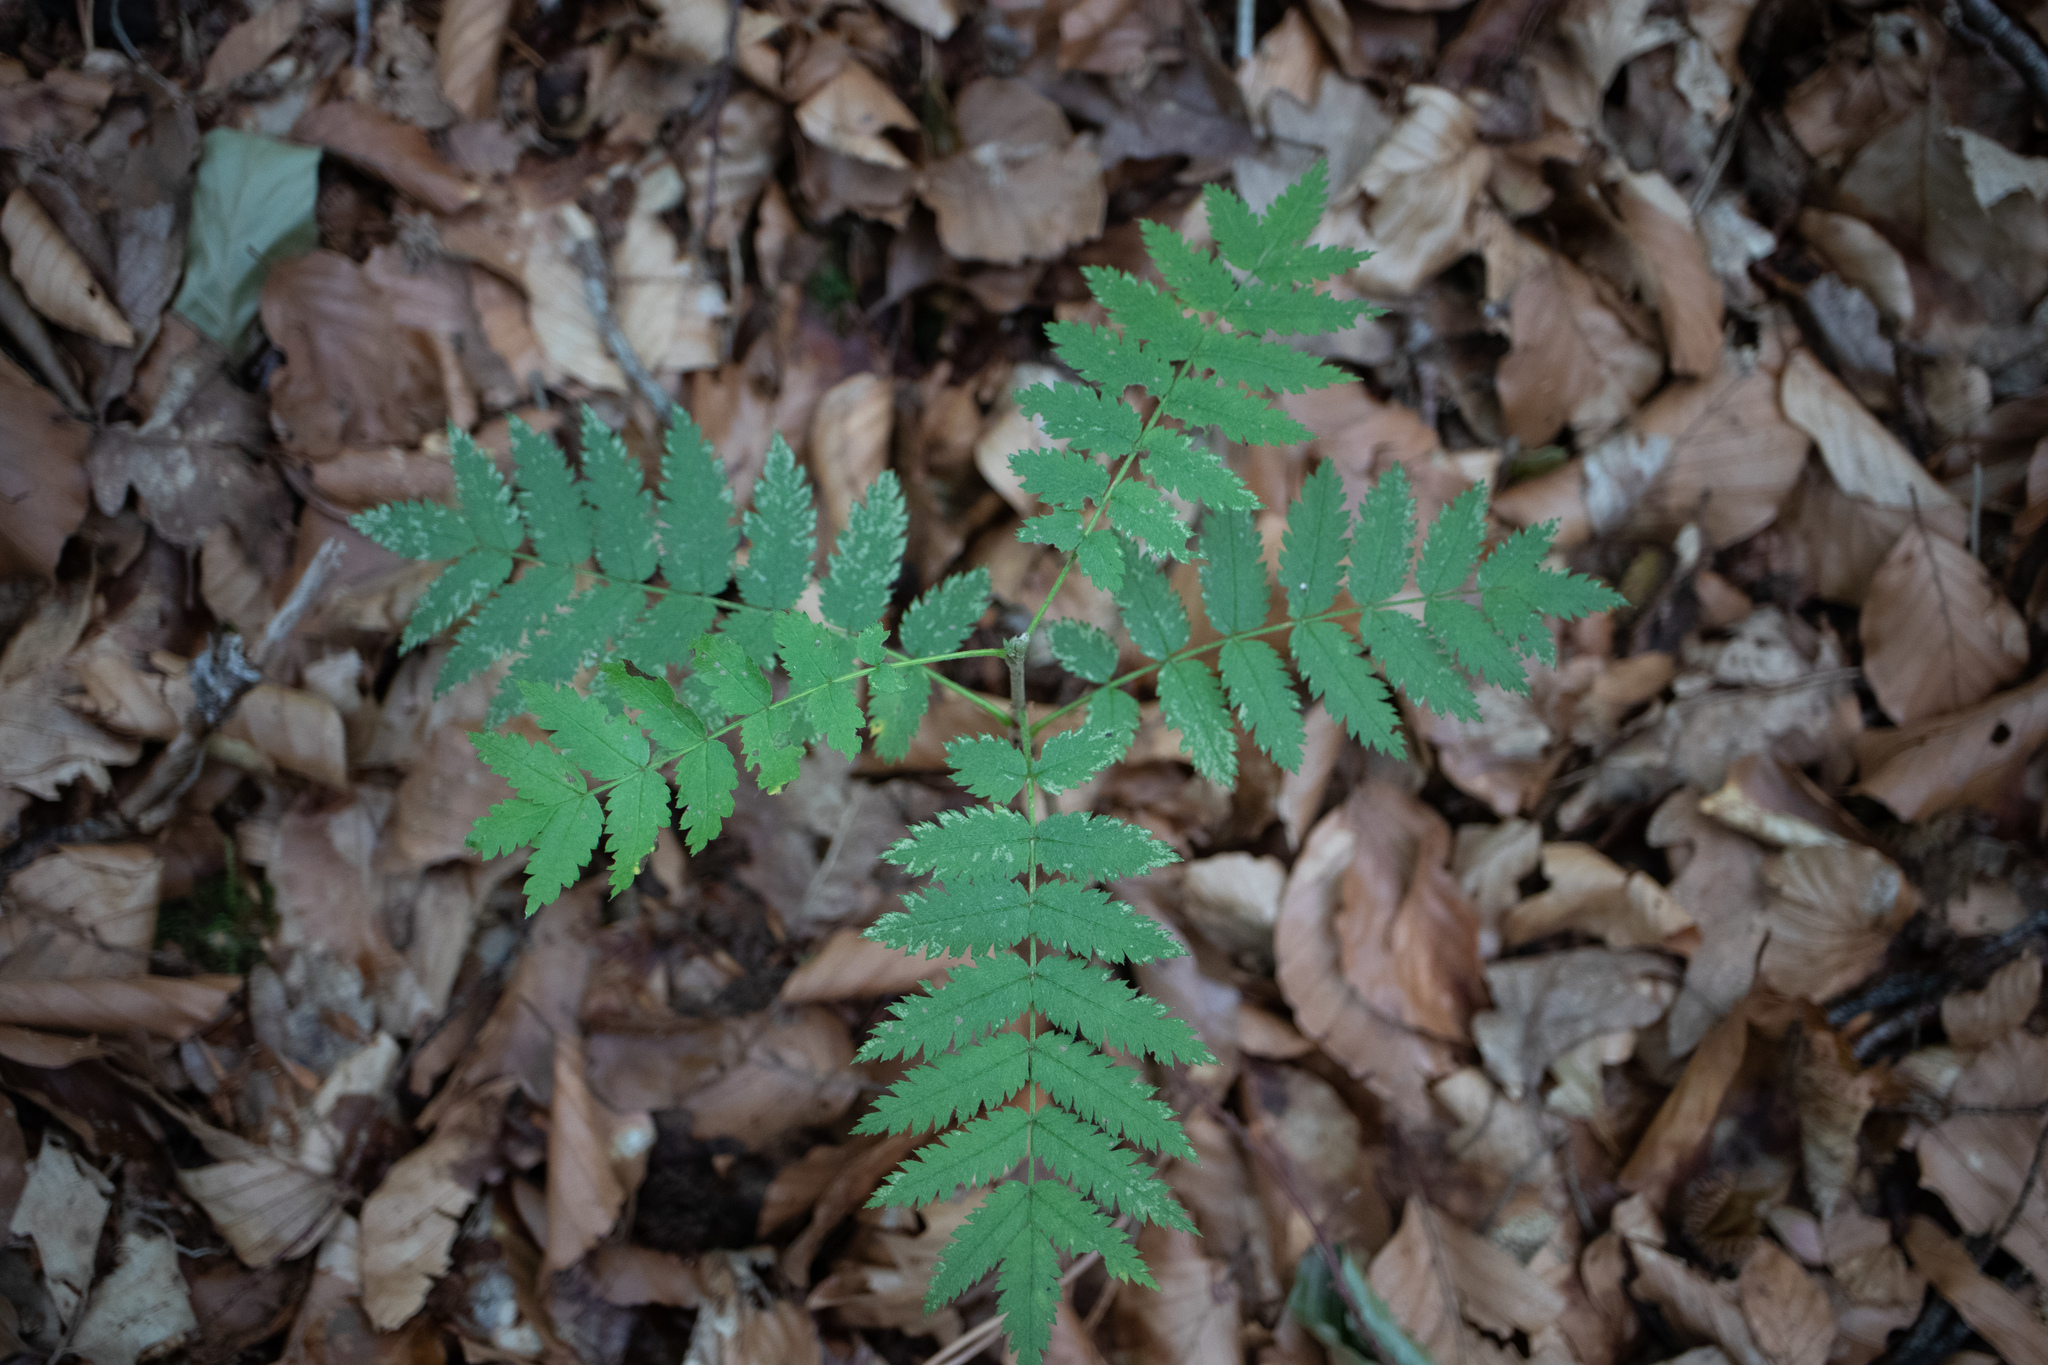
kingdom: Plantae
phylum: Tracheophyta
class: Magnoliopsida
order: Rosales
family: Rosaceae
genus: Sorbus
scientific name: Sorbus aucuparia
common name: Rowan
